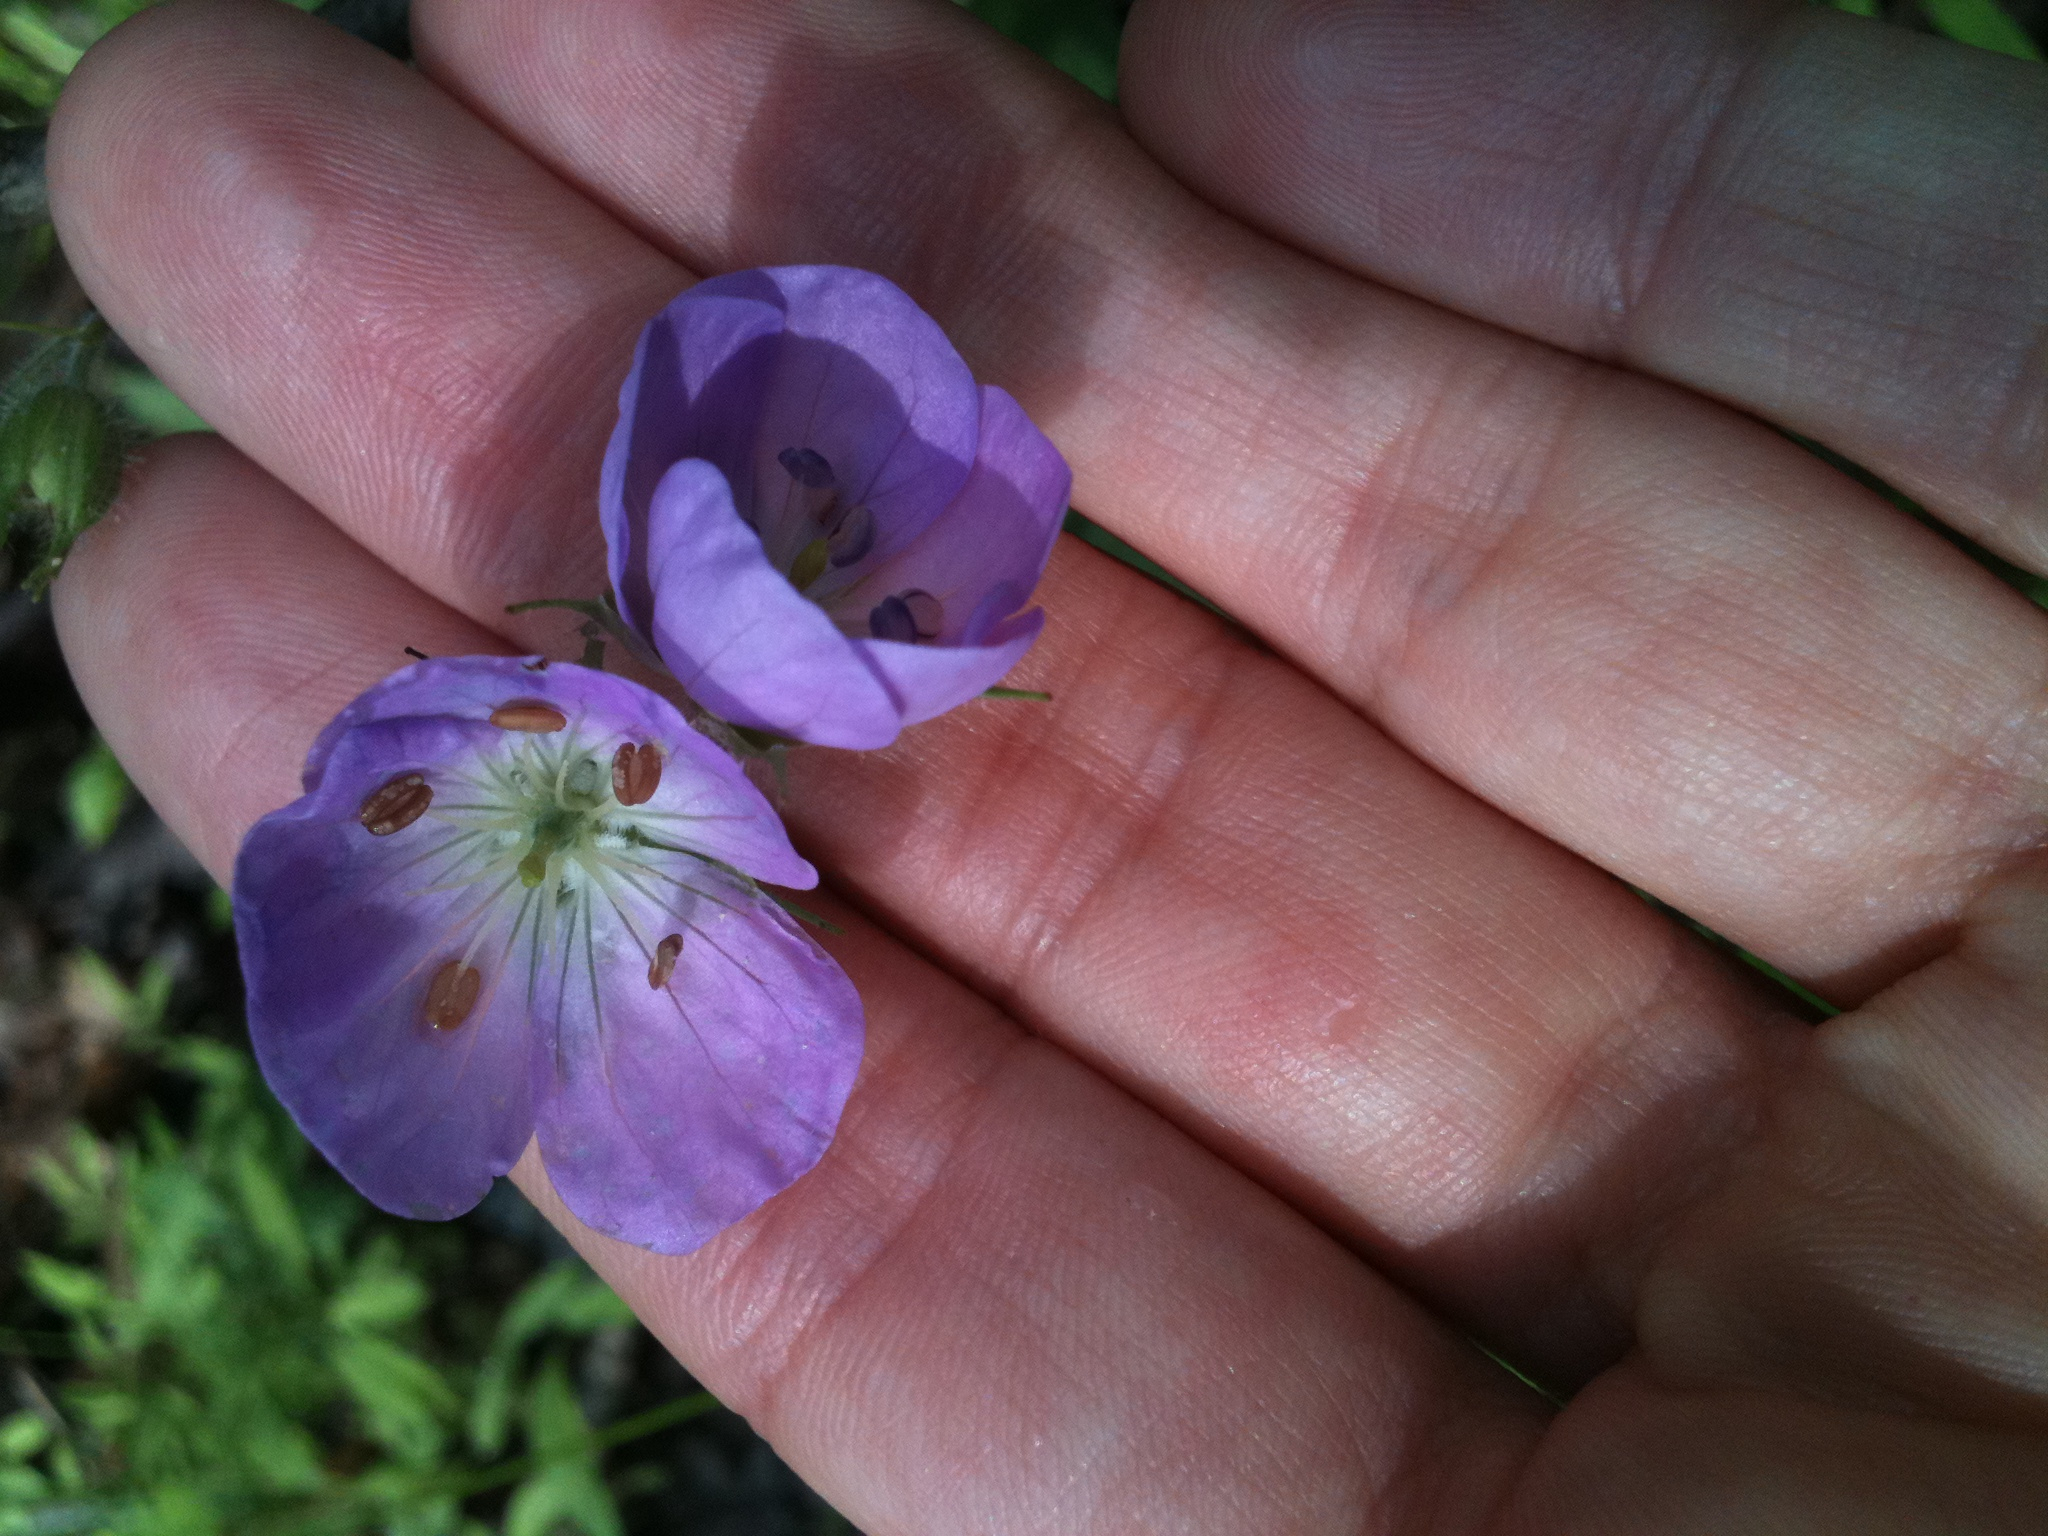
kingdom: Plantae
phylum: Tracheophyta
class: Magnoliopsida
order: Geraniales
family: Geraniaceae
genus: Geranium
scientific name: Geranium maculatum
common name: Spotted geranium
